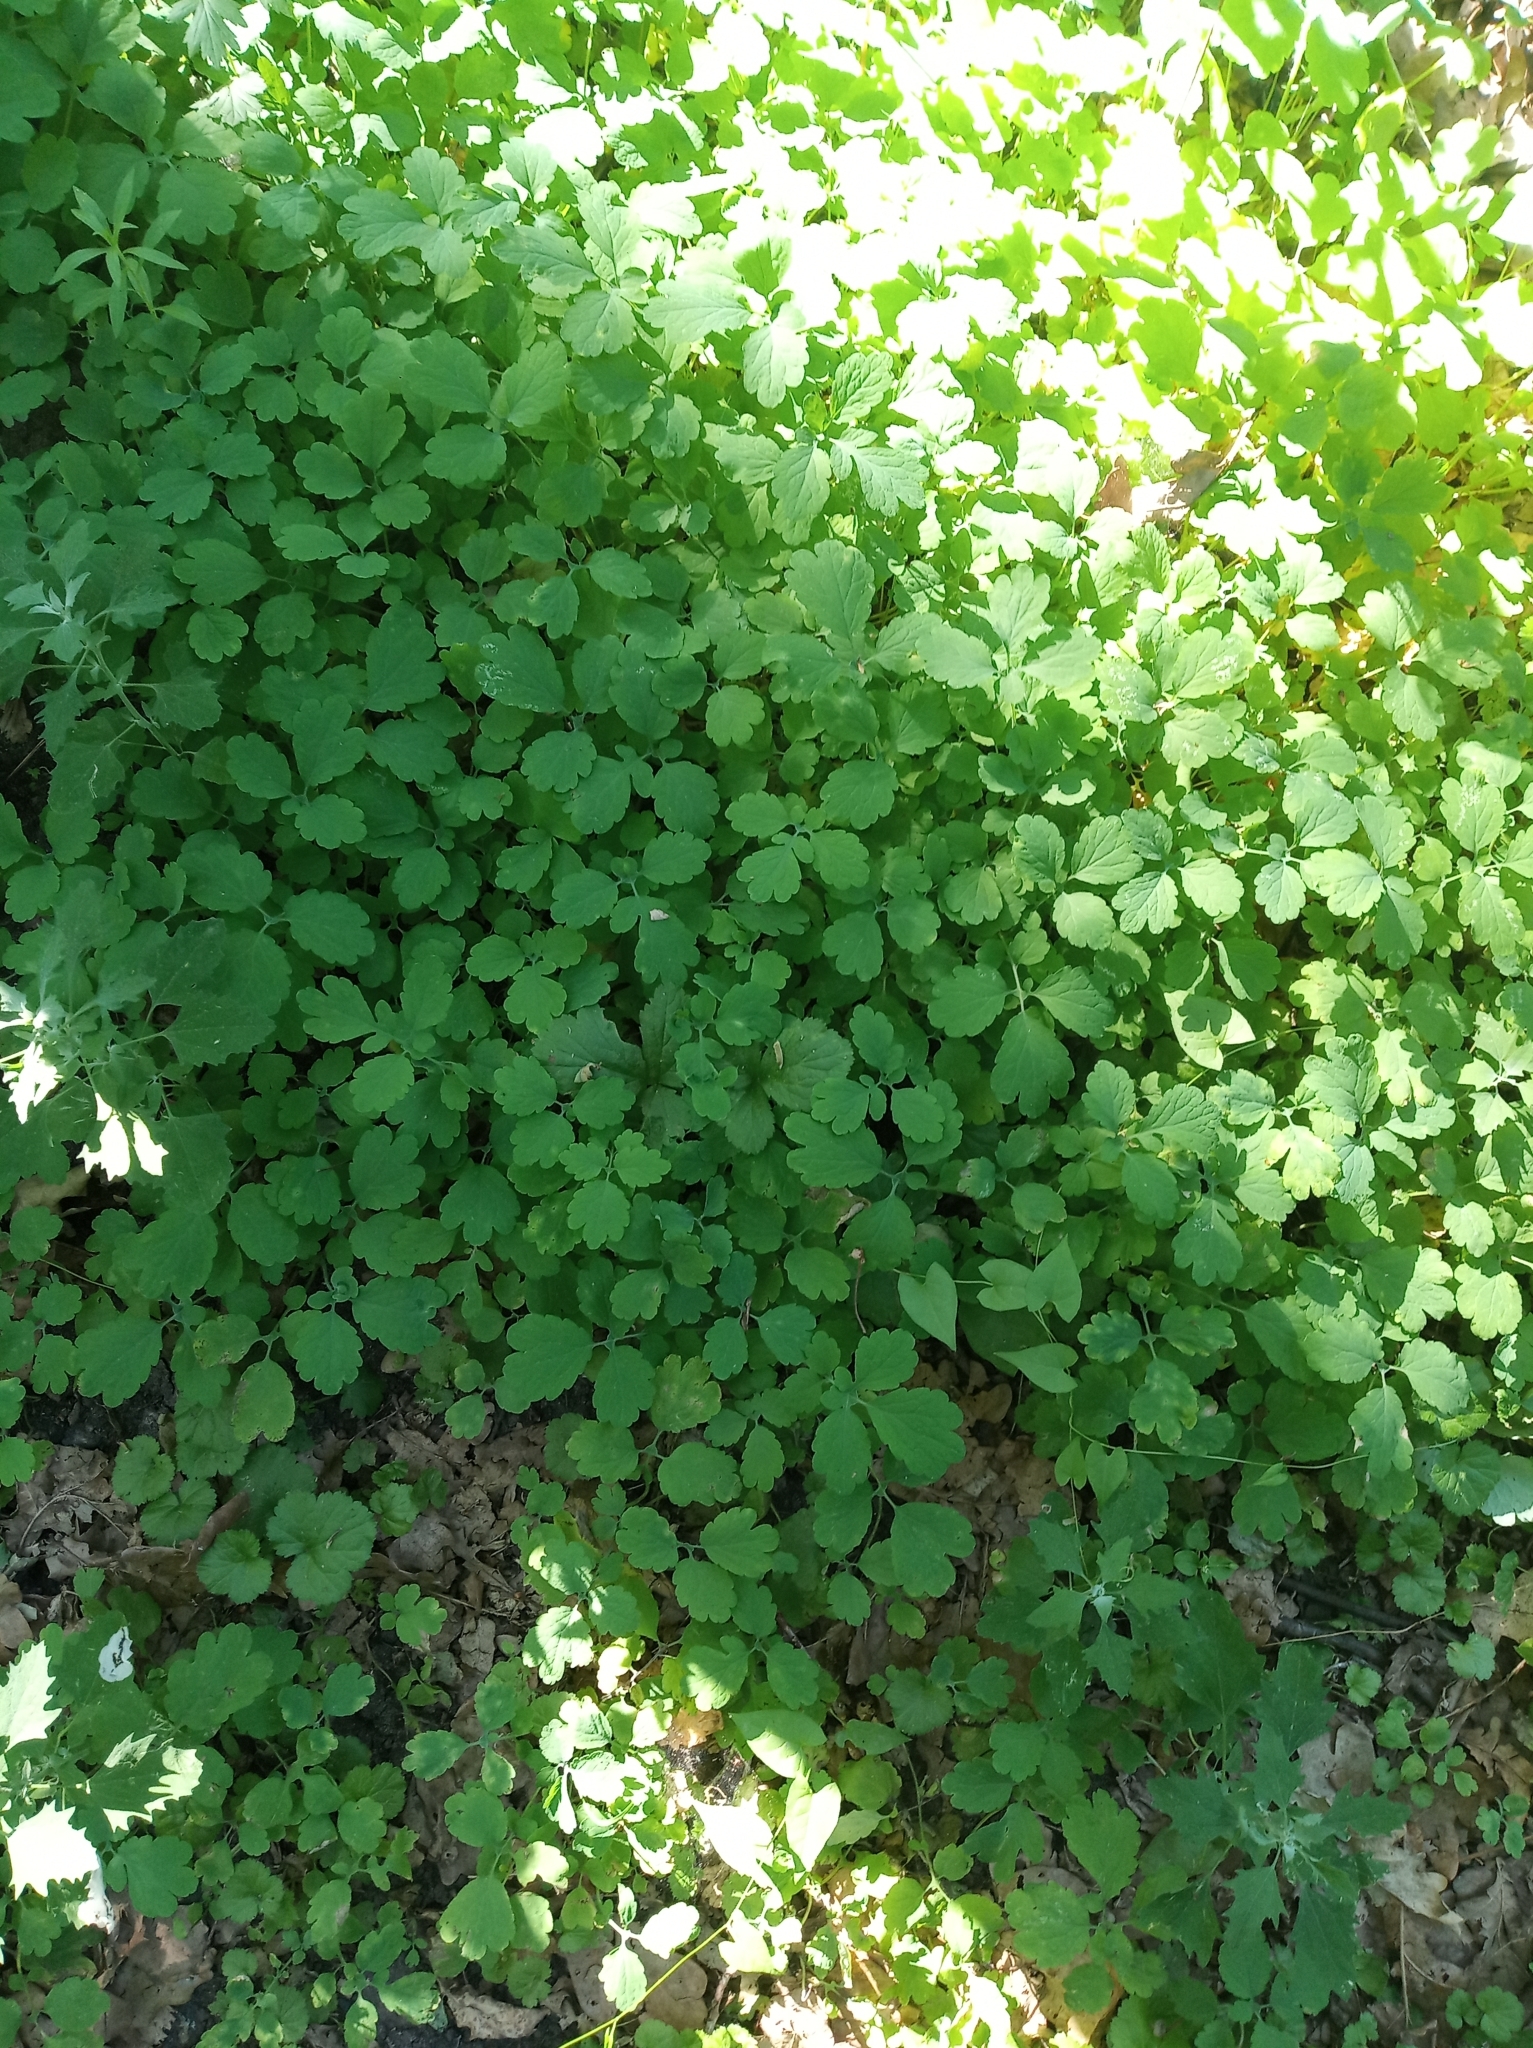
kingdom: Plantae
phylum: Tracheophyta
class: Magnoliopsida
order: Ranunculales
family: Papaveraceae
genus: Chelidonium
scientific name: Chelidonium majus
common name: Greater celandine
